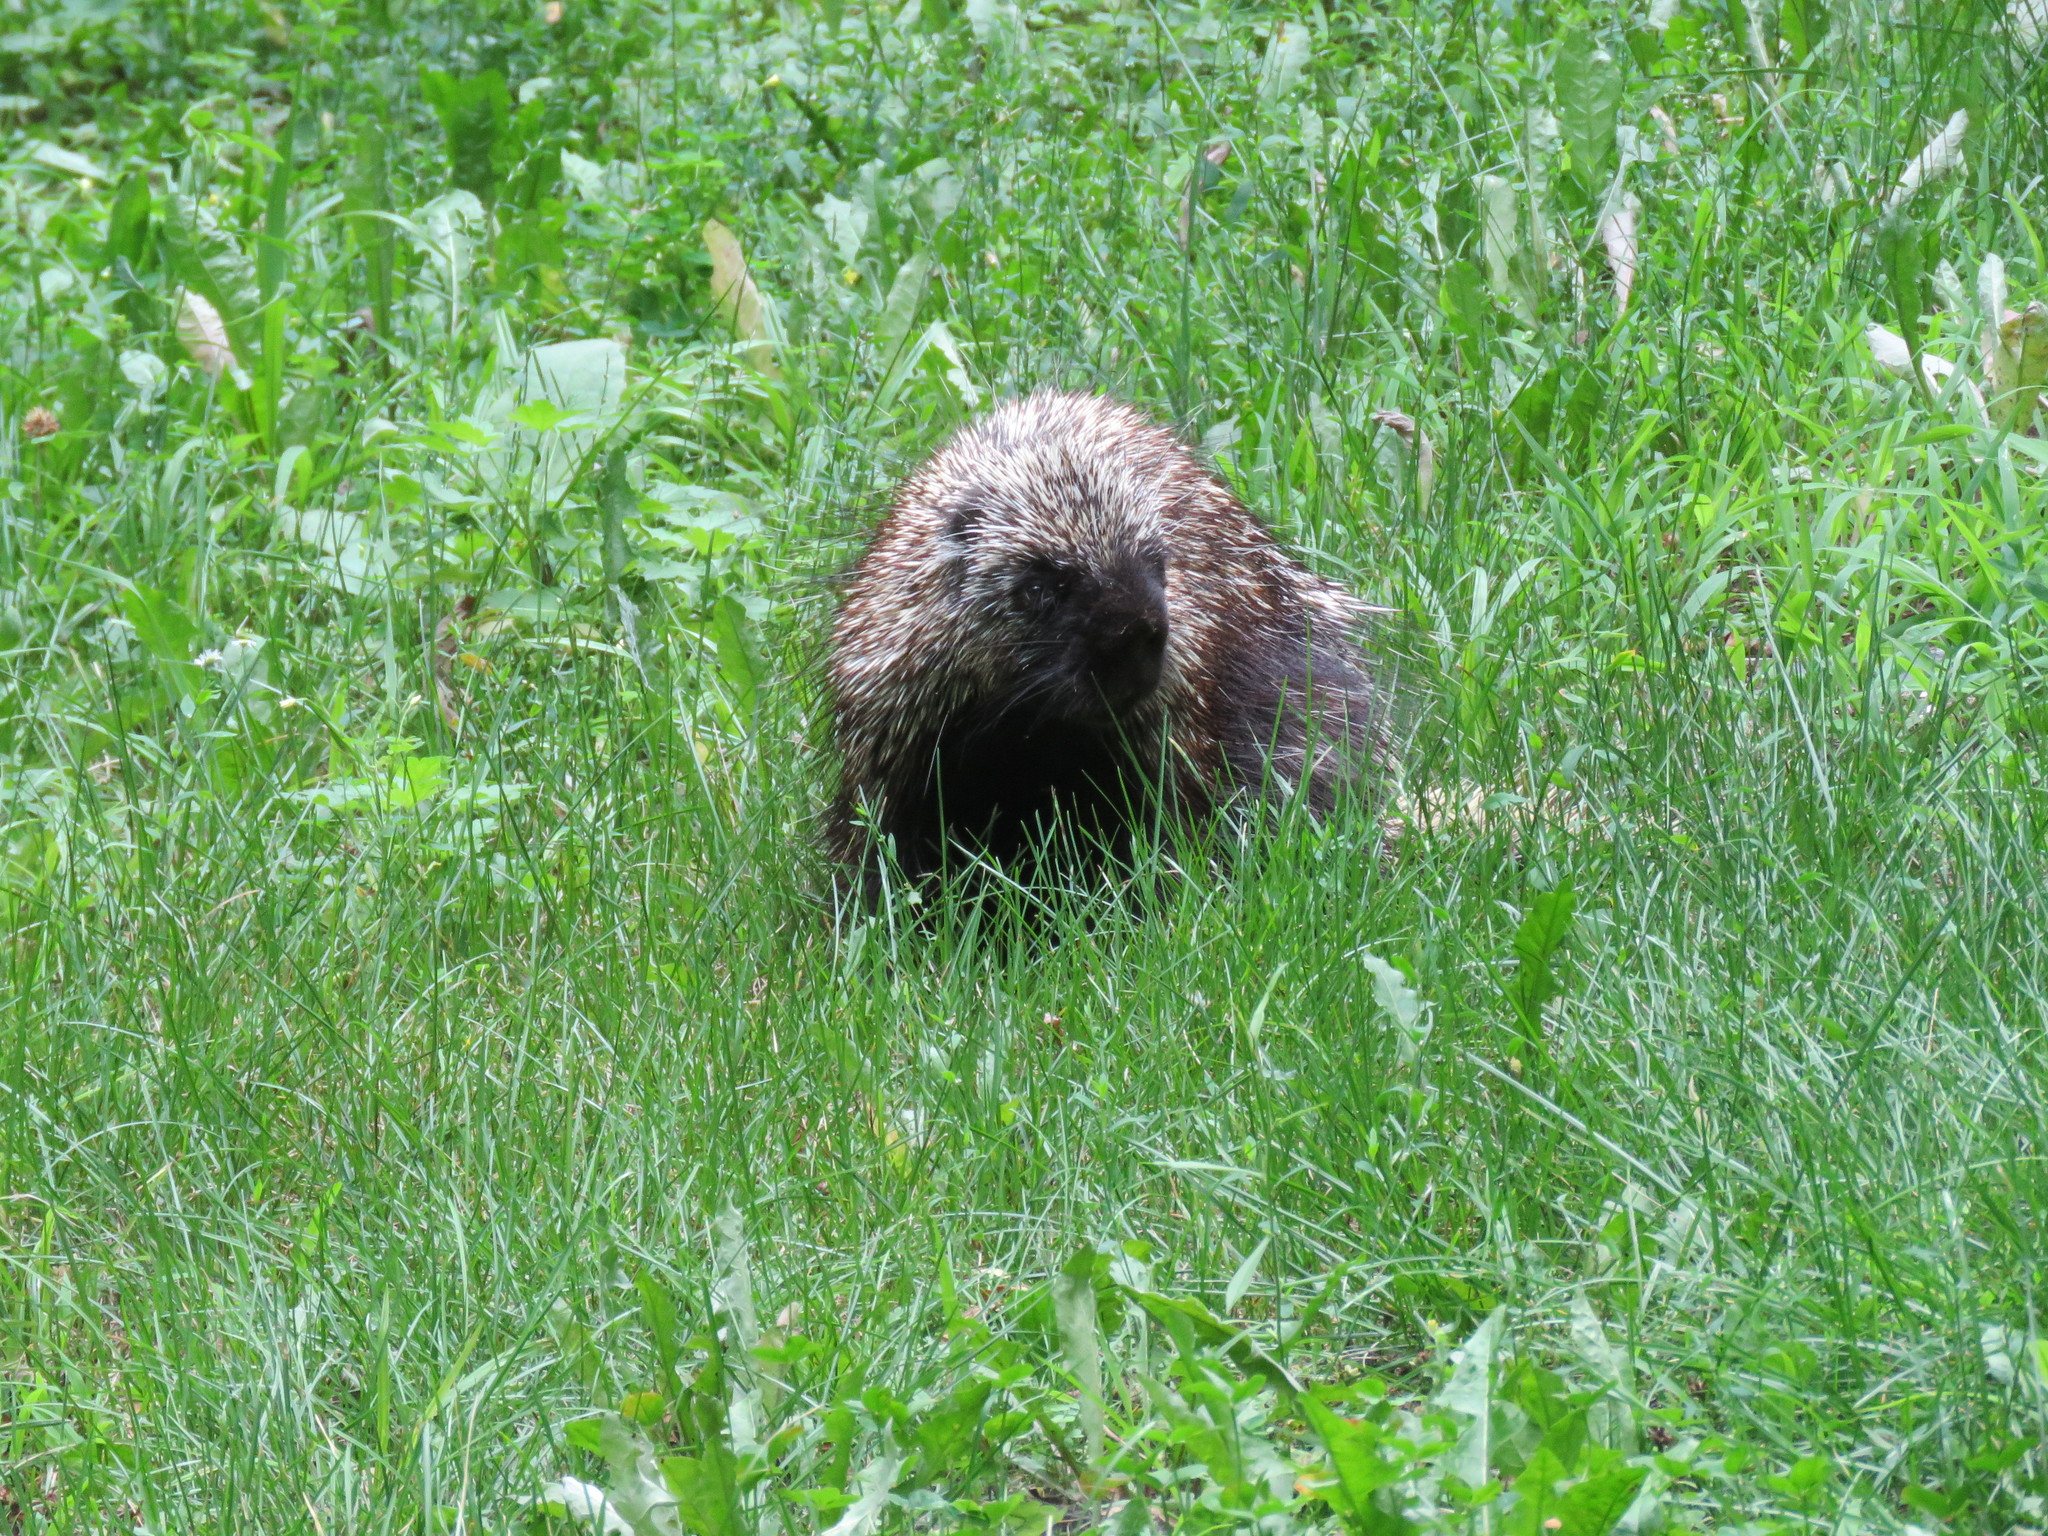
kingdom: Animalia
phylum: Chordata
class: Mammalia
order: Rodentia
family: Erethizontidae
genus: Erethizon
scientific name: Erethizon dorsatus
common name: North american porcupine
